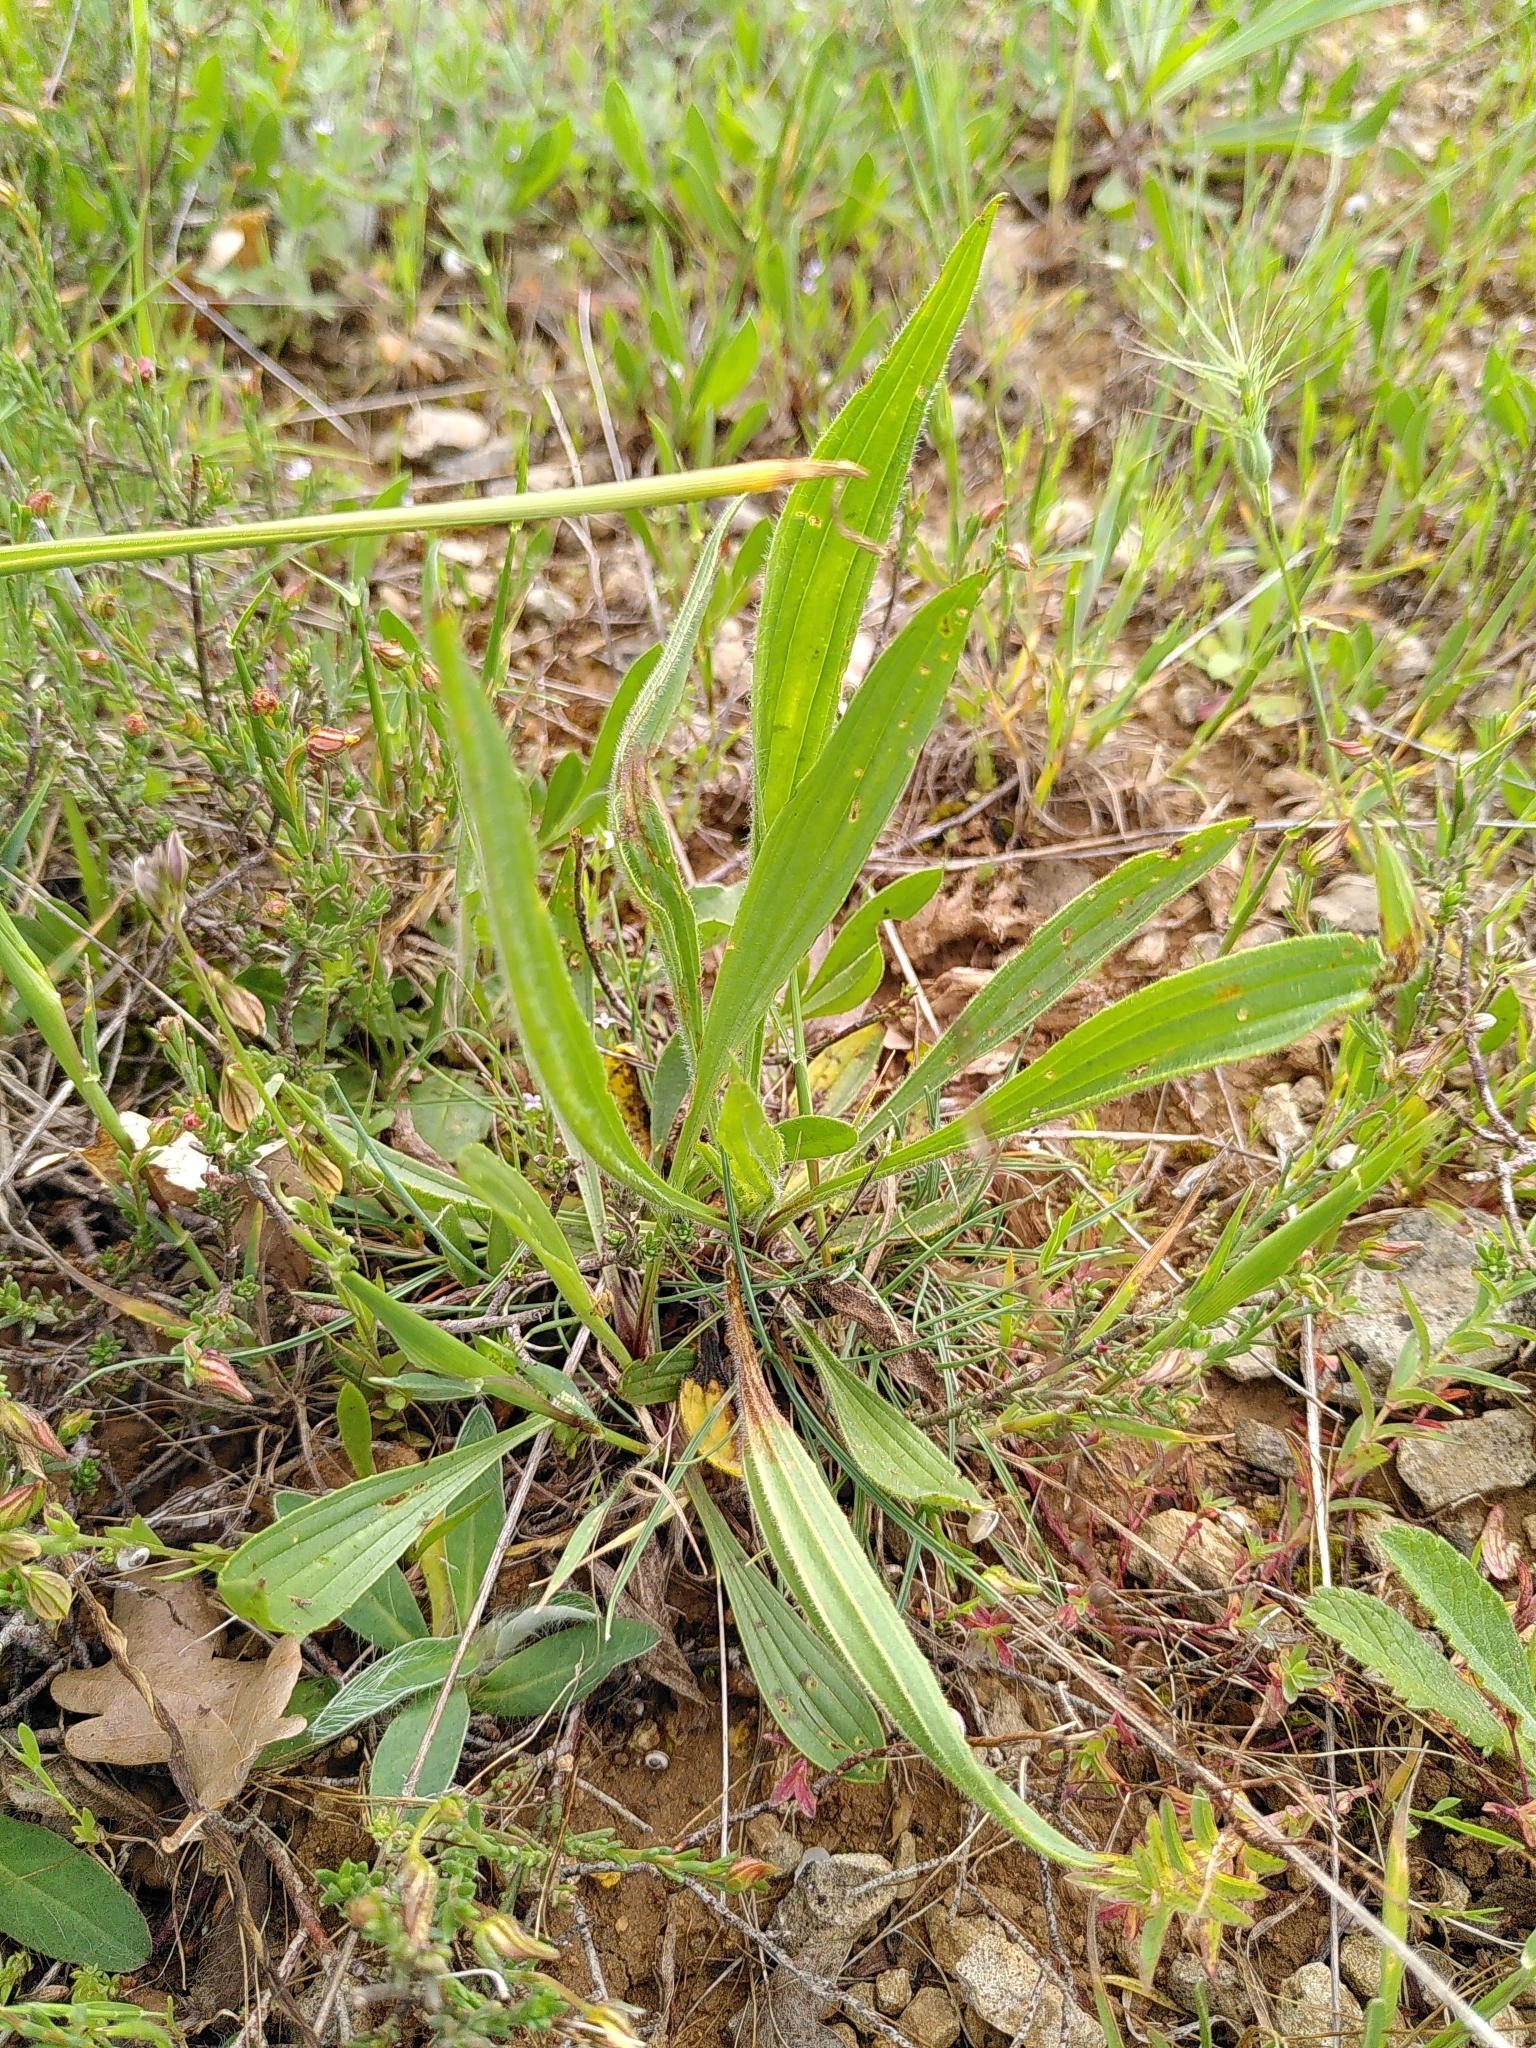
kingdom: Plantae
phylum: Tracheophyta
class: Magnoliopsida
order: Lamiales
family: Plantaginaceae
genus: Plantago
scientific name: Plantago lanceolata
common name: Ribwort plantain
